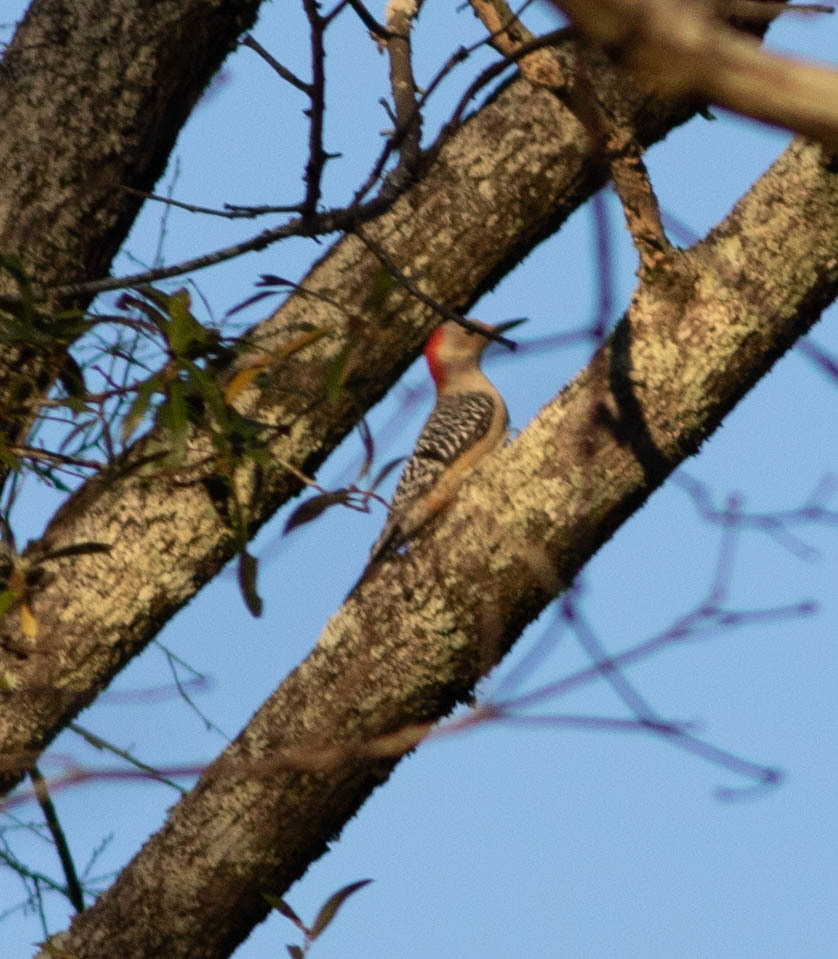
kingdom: Animalia
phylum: Chordata
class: Aves
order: Piciformes
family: Picidae
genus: Melanerpes
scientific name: Melanerpes carolinus
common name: Red-bellied woodpecker
